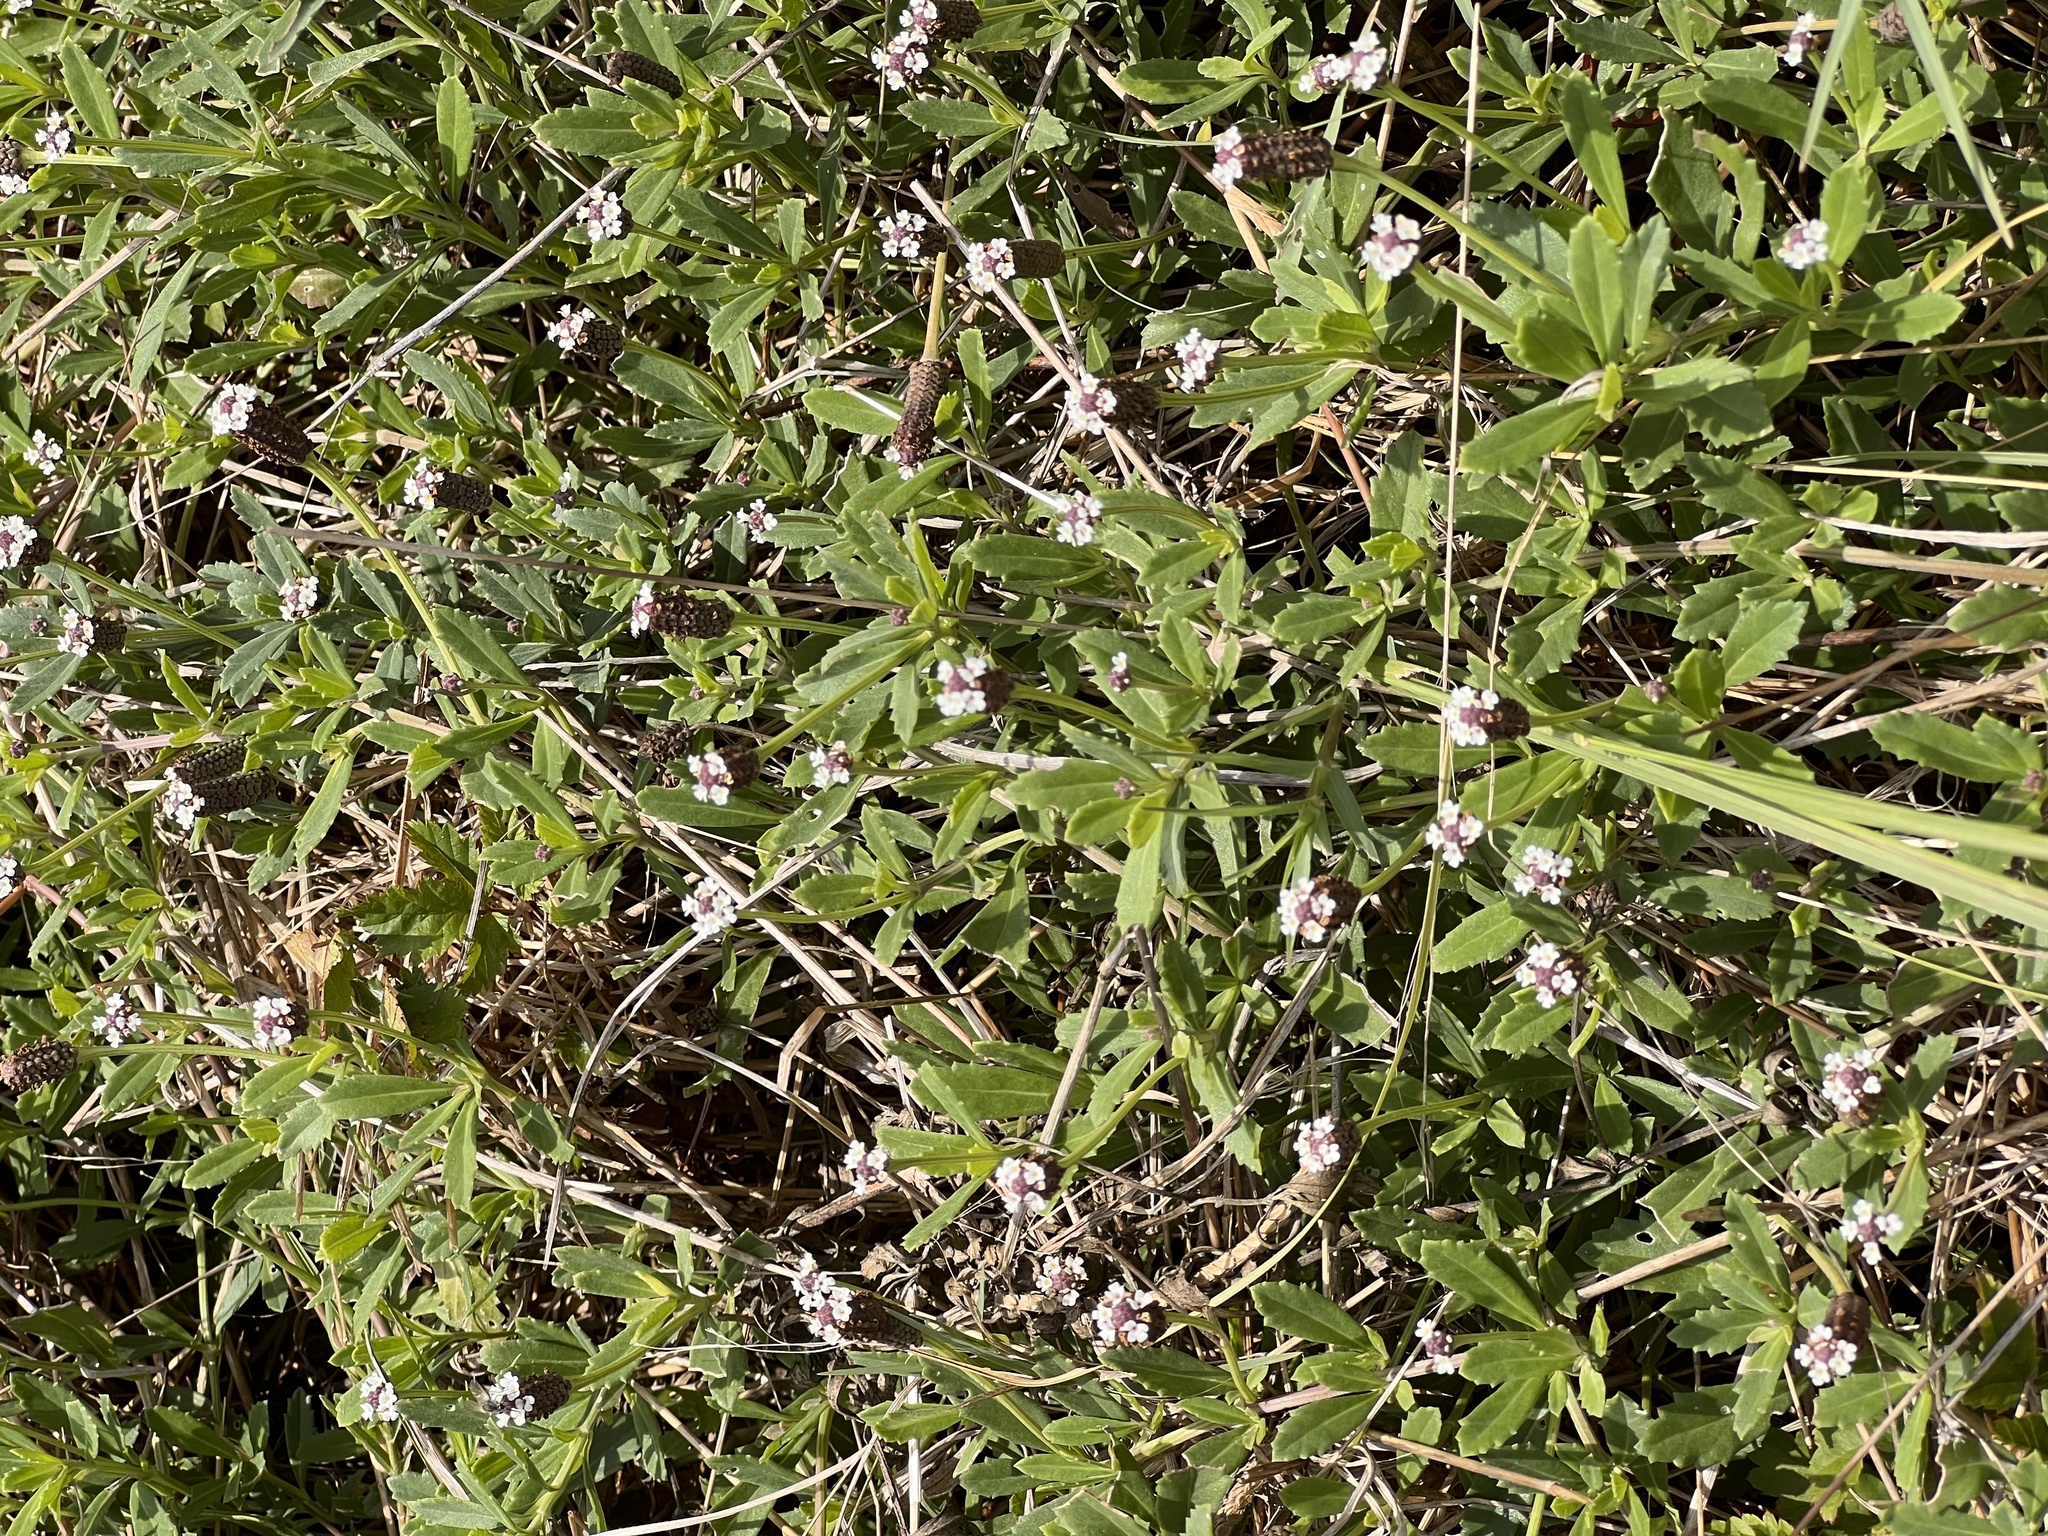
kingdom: Plantae
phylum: Tracheophyta
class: Magnoliopsida
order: Lamiales
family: Verbenaceae
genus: Phyla
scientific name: Phyla nodiflora
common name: Frogfruit
